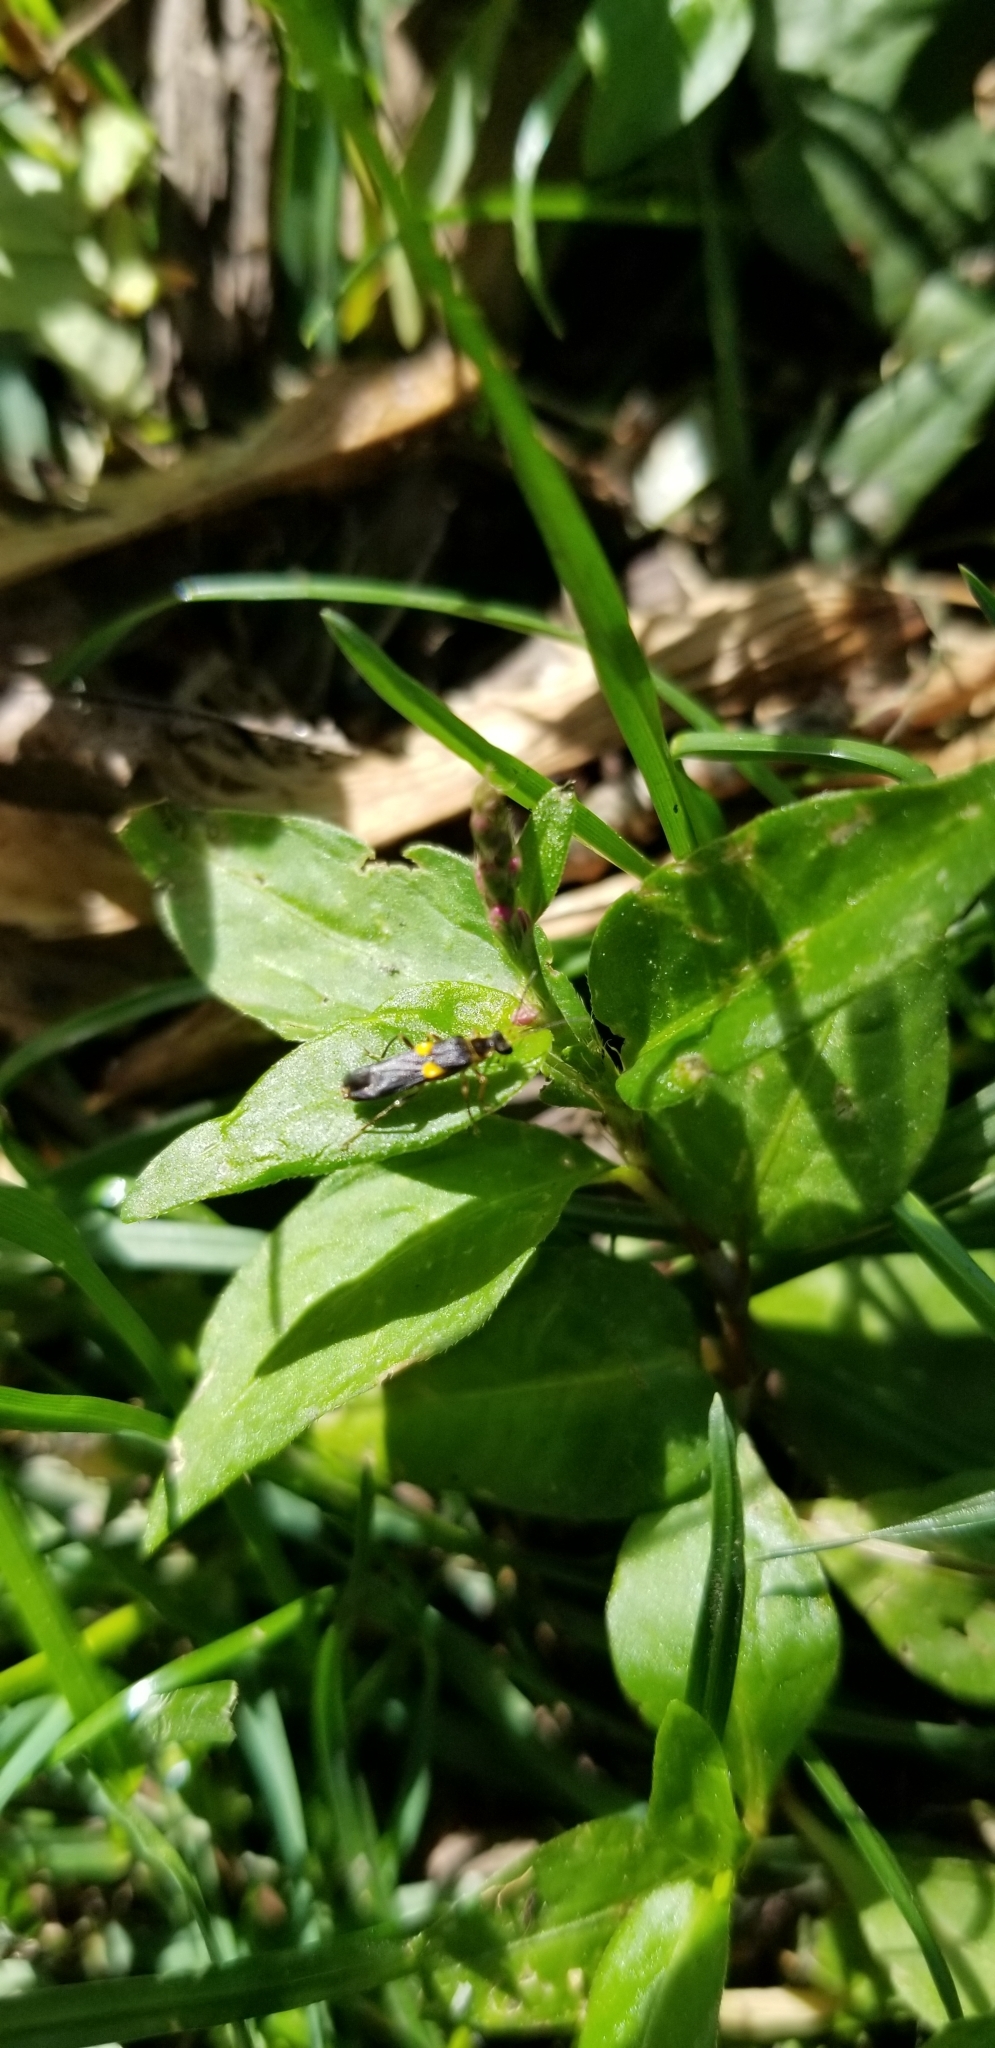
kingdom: Animalia
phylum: Arthropoda
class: Insecta
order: Coleoptera
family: Cantharidae
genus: Trypherus
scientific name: Trypherus
